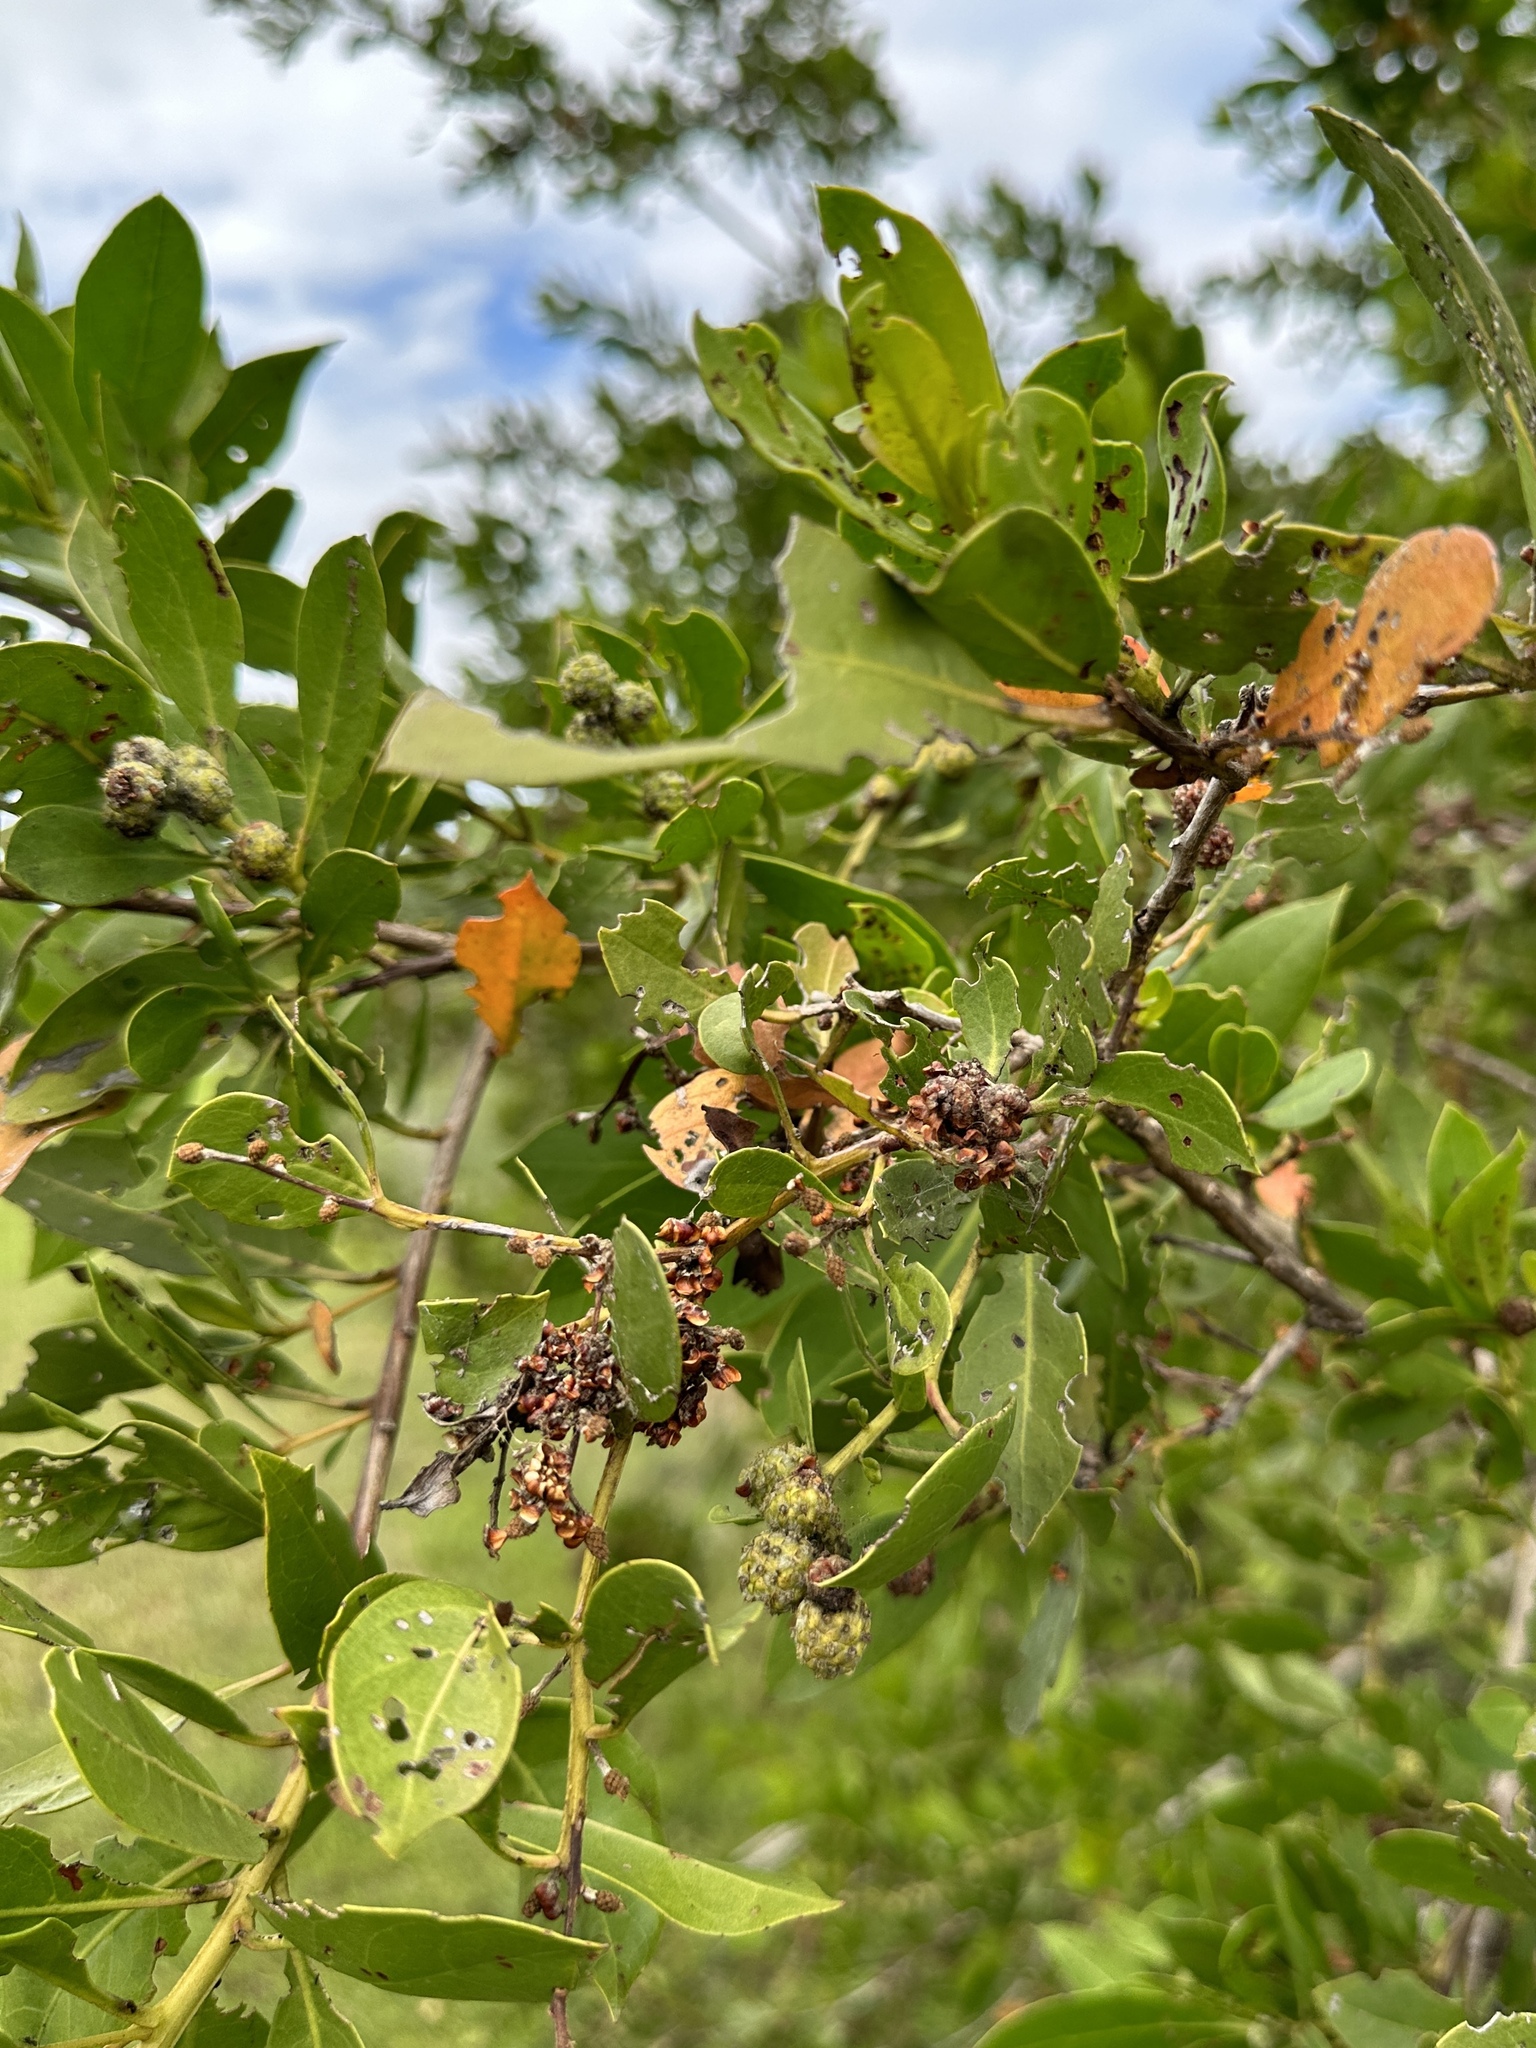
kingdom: Plantae
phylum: Tracheophyta
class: Magnoliopsida
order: Myrtales
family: Combretaceae
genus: Conocarpus
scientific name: Conocarpus erectus
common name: Button mangrove
